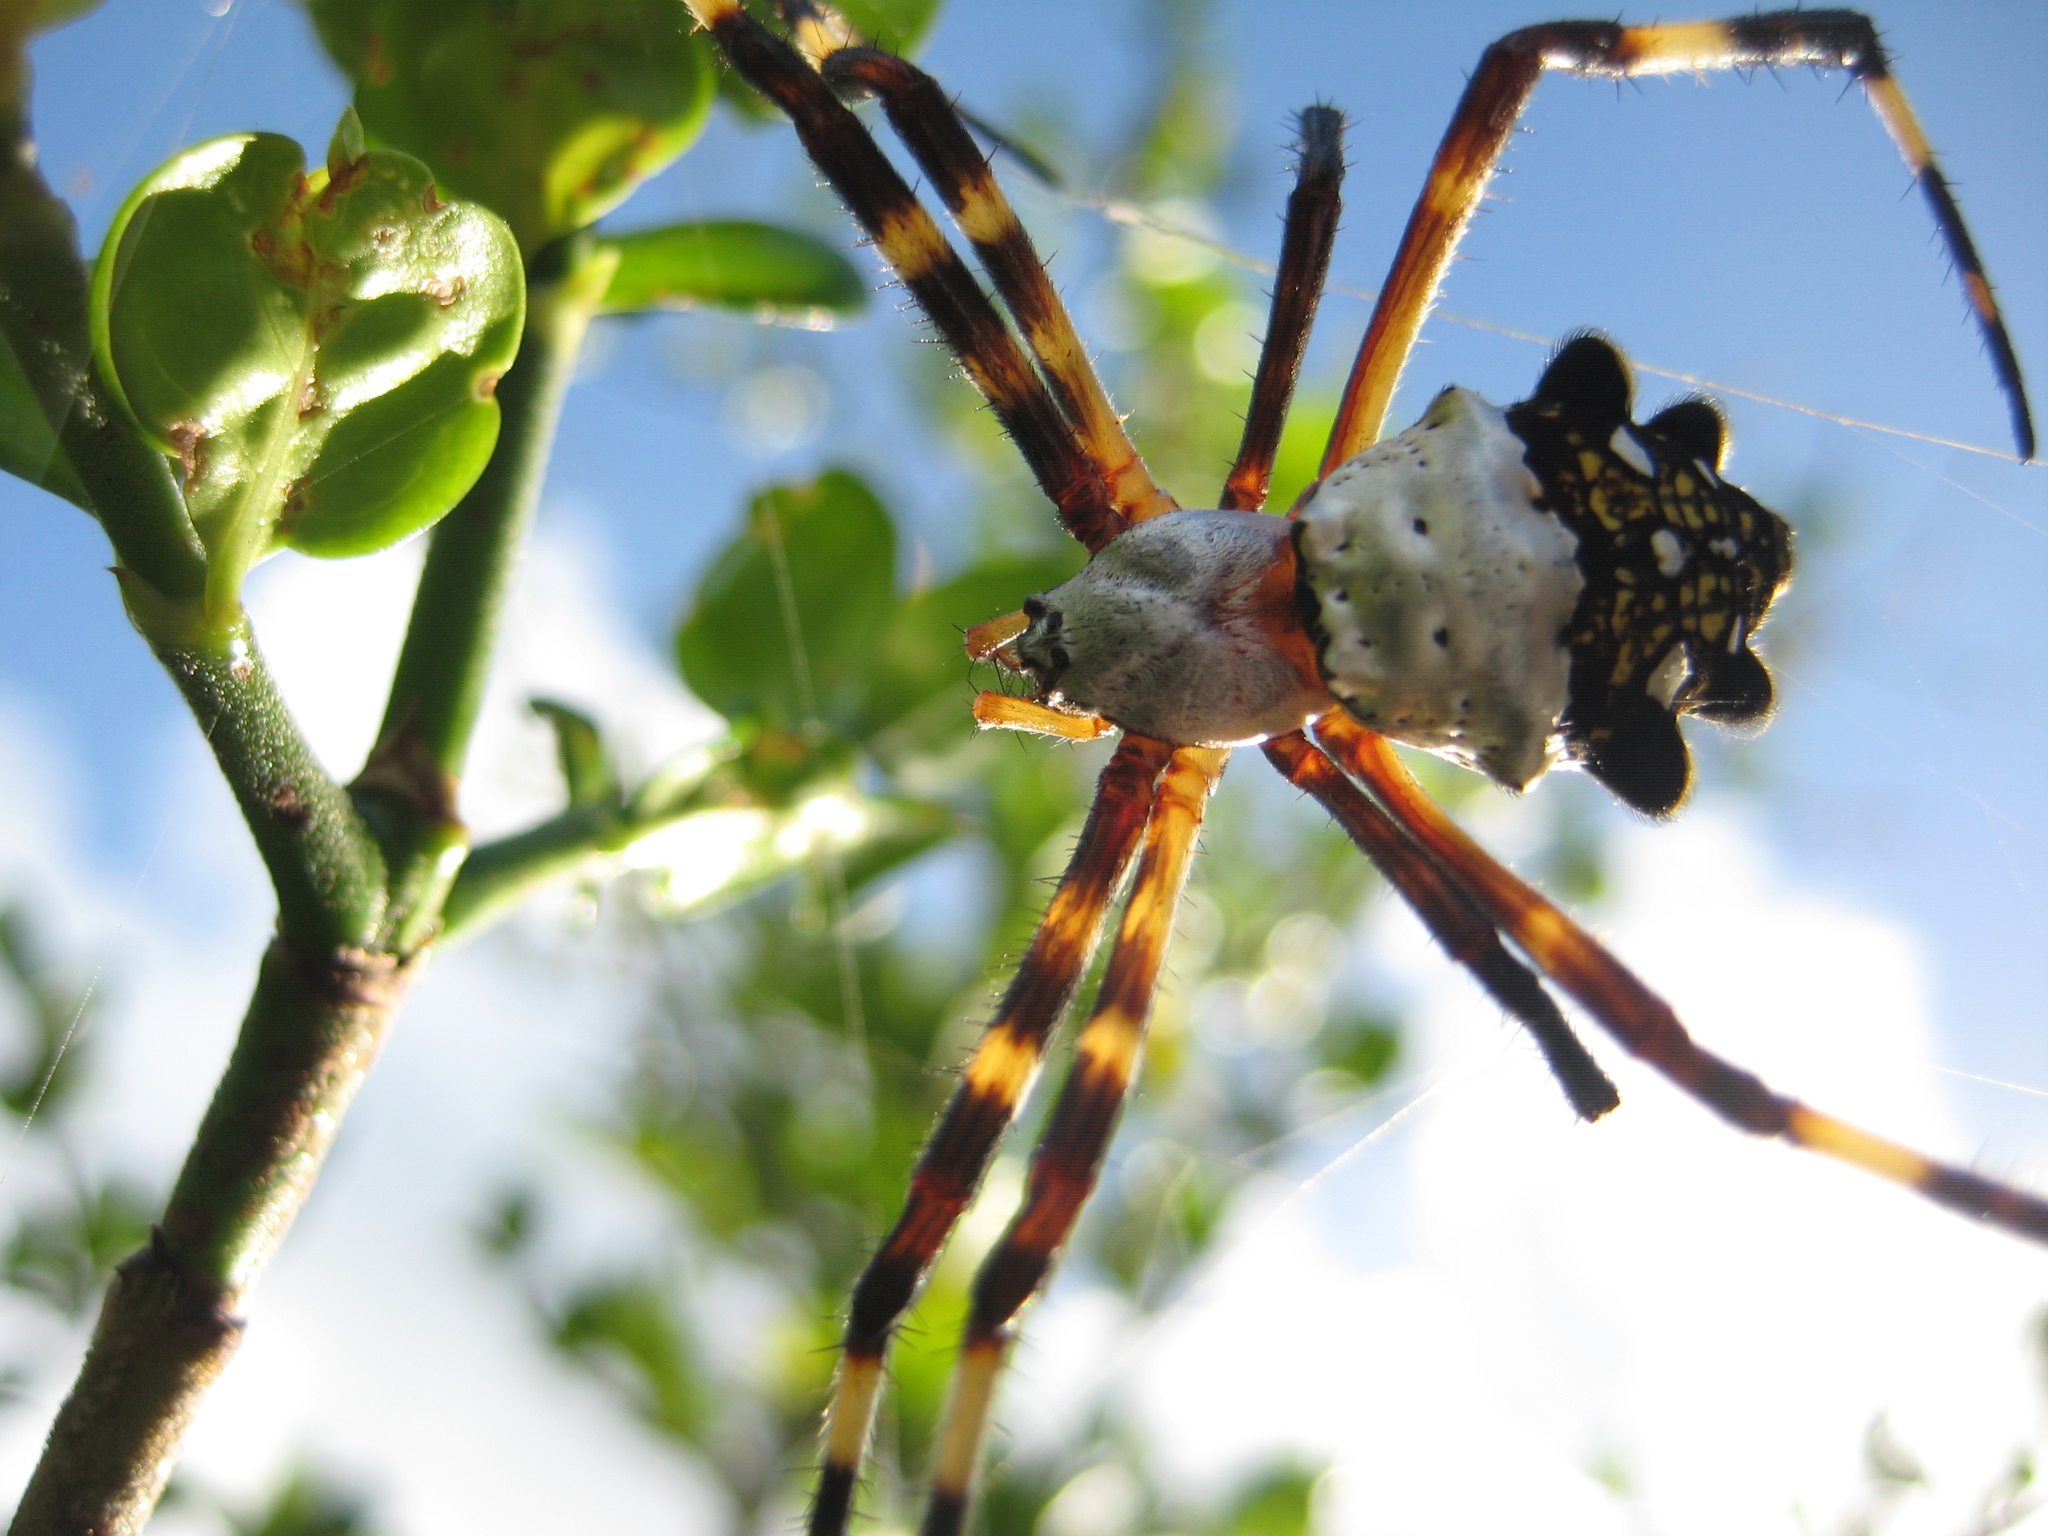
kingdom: Animalia
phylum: Arthropoda
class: Arachnida
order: Araneae
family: Araneidae
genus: Argiope
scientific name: Argiope argentata
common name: Orb weavers
